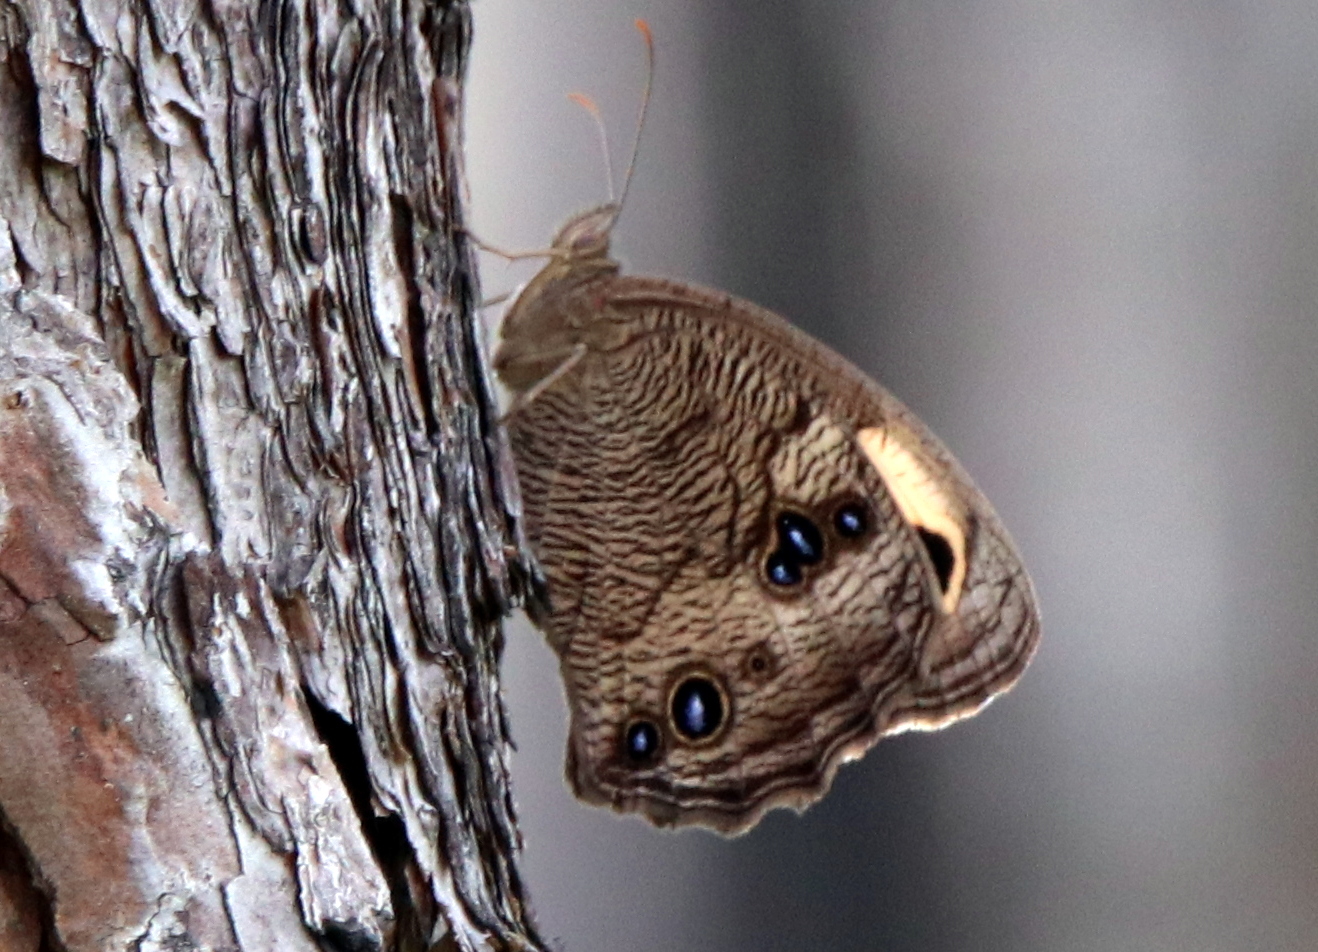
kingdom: Animalia
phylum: Arthropoda
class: Insecta
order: Lepidoptera
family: Nymphalidae
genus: Cercyonis
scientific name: Cercyonis pegala
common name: Common wood-nymph
